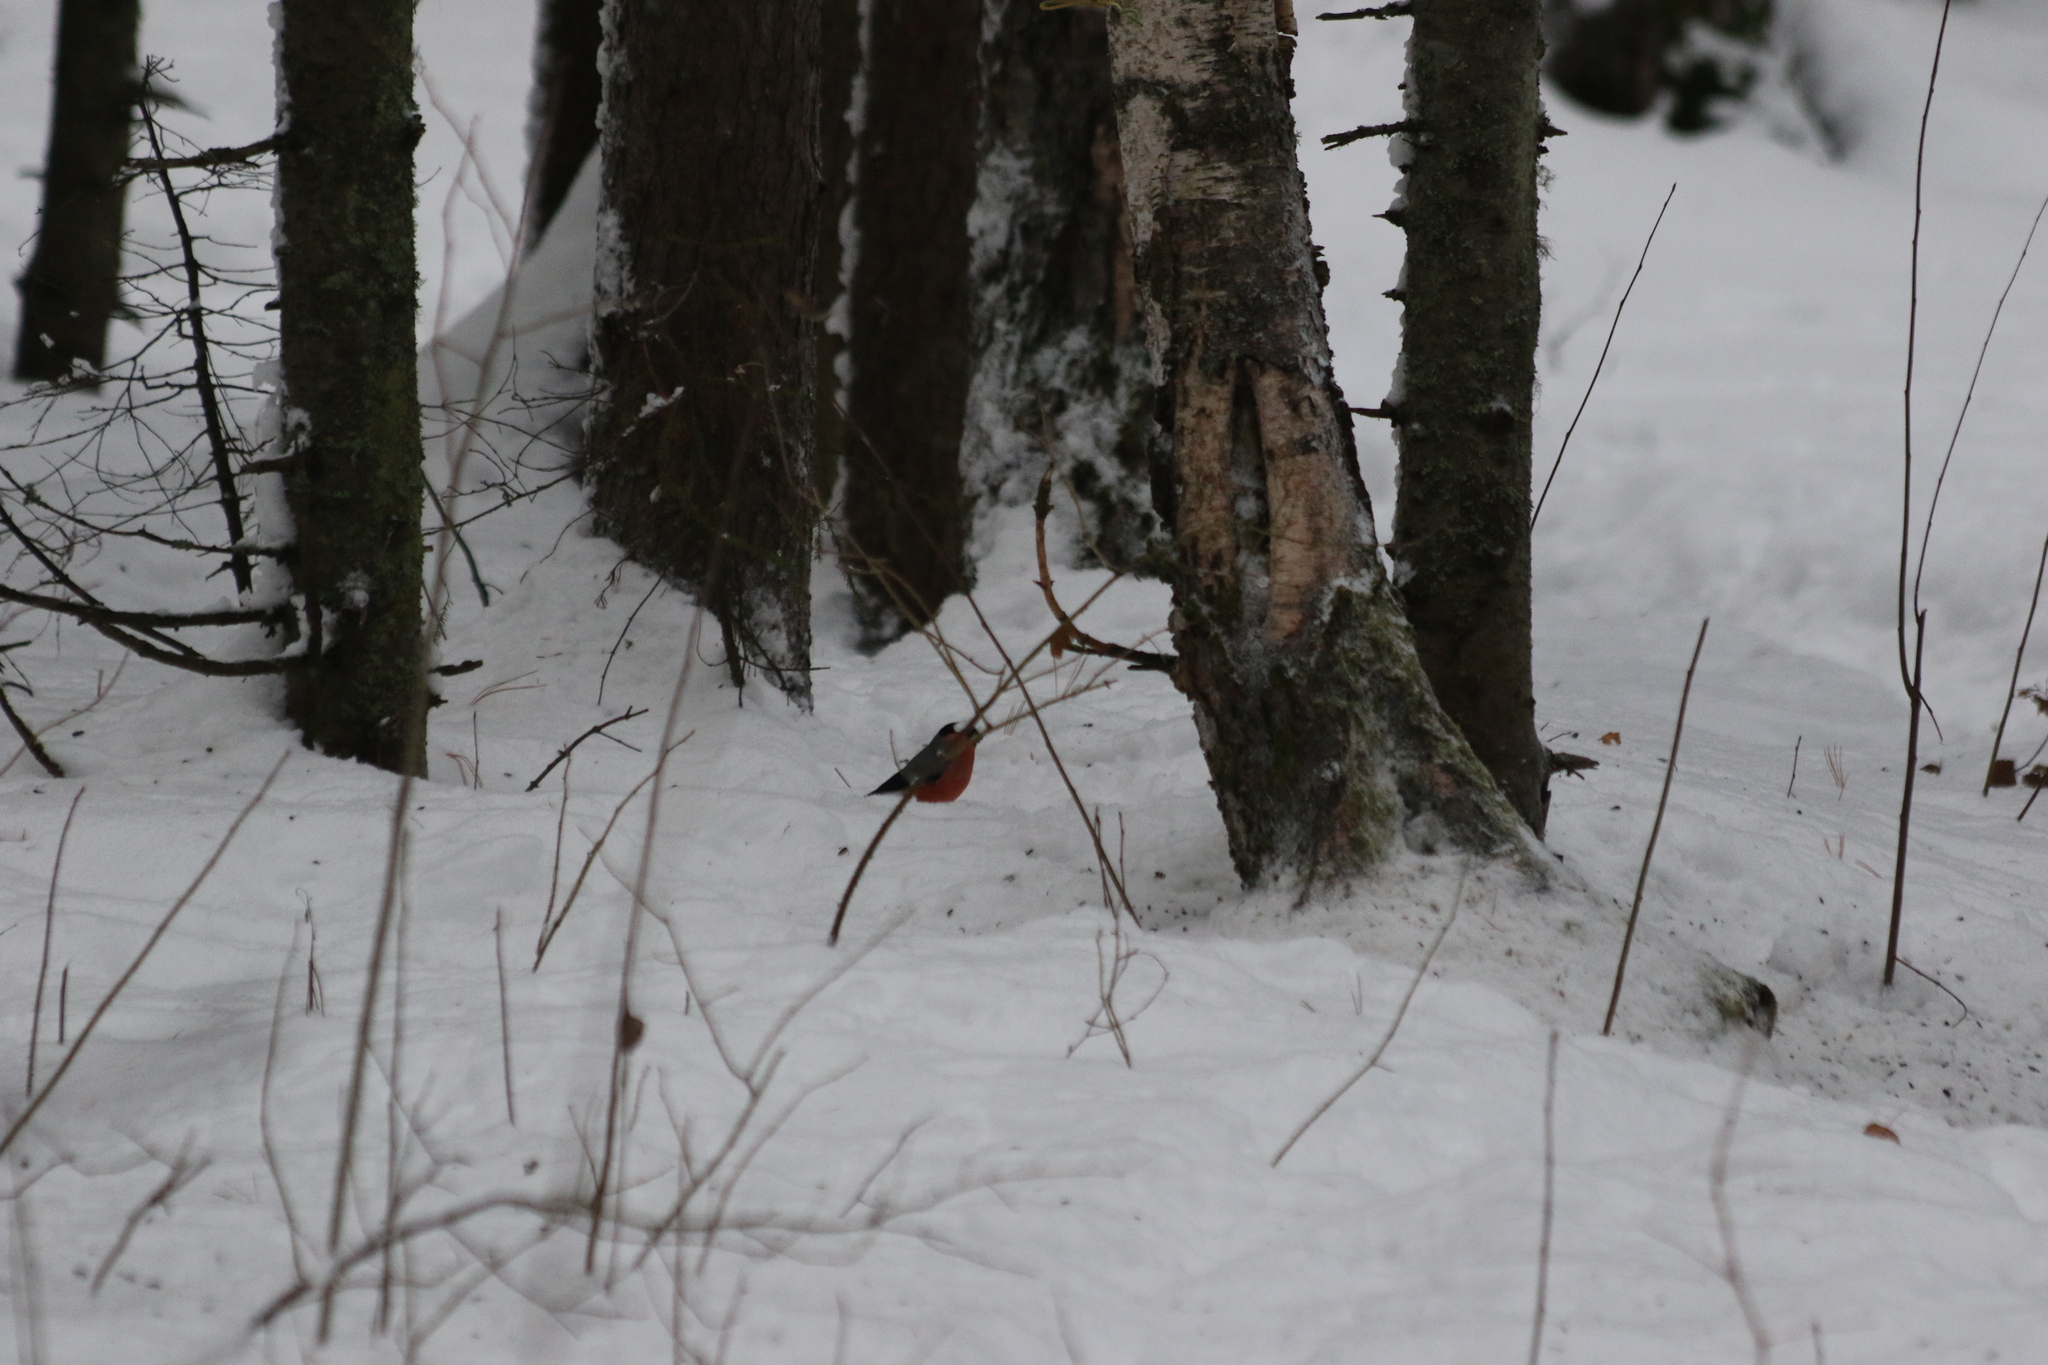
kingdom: Animalia
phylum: Chordata
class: Aves
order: Passeriformes
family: Fringillidae
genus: Pyrrhula
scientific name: Pyrrhula pyrrhula
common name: Eurasian bullfinch
